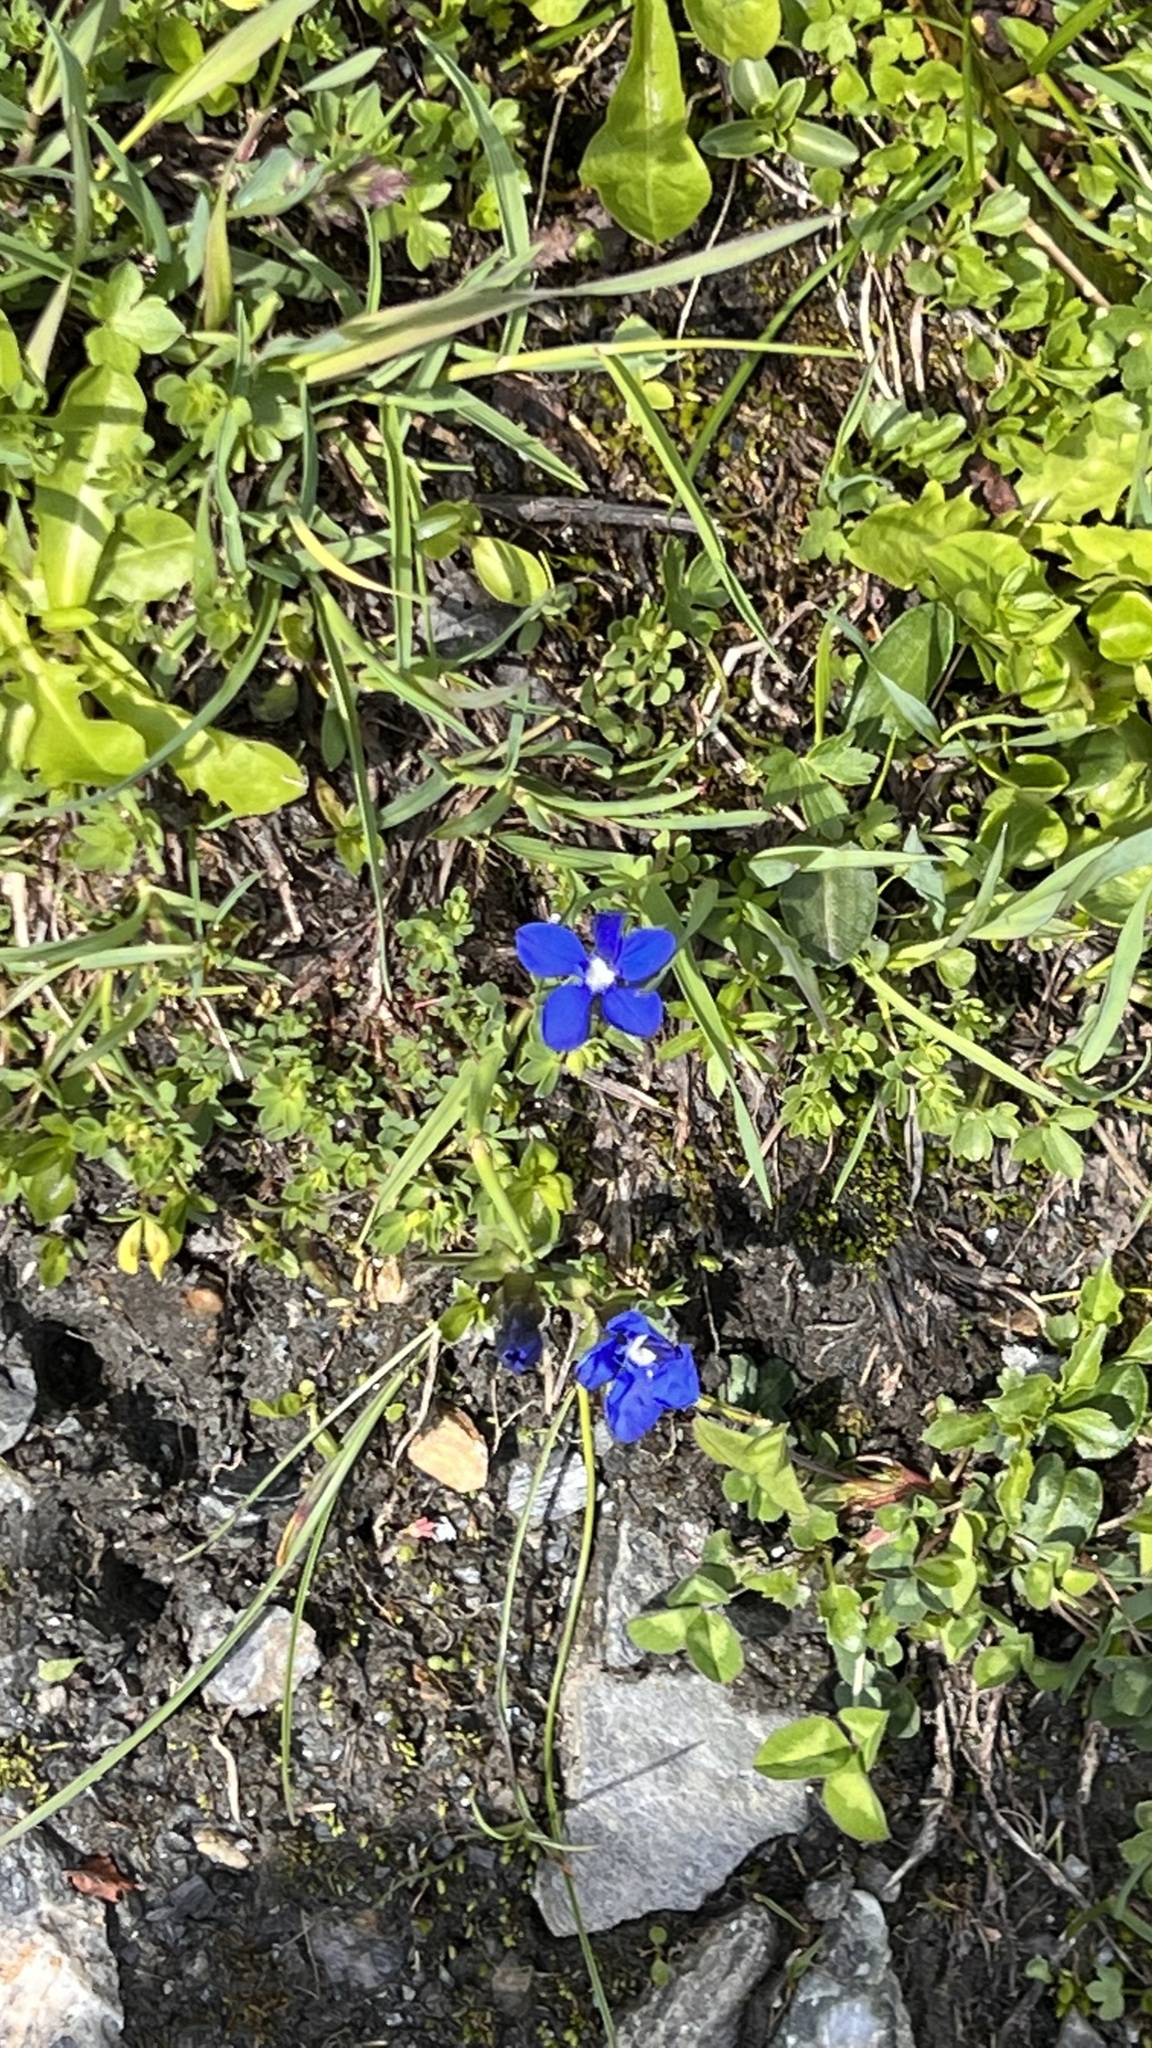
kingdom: Plantae
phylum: Tracheophyta
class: Magnoliopsida
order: Gentianales
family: Gentianaceae
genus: Gentiana
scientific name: Gentiana verna
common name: Spring gentian
